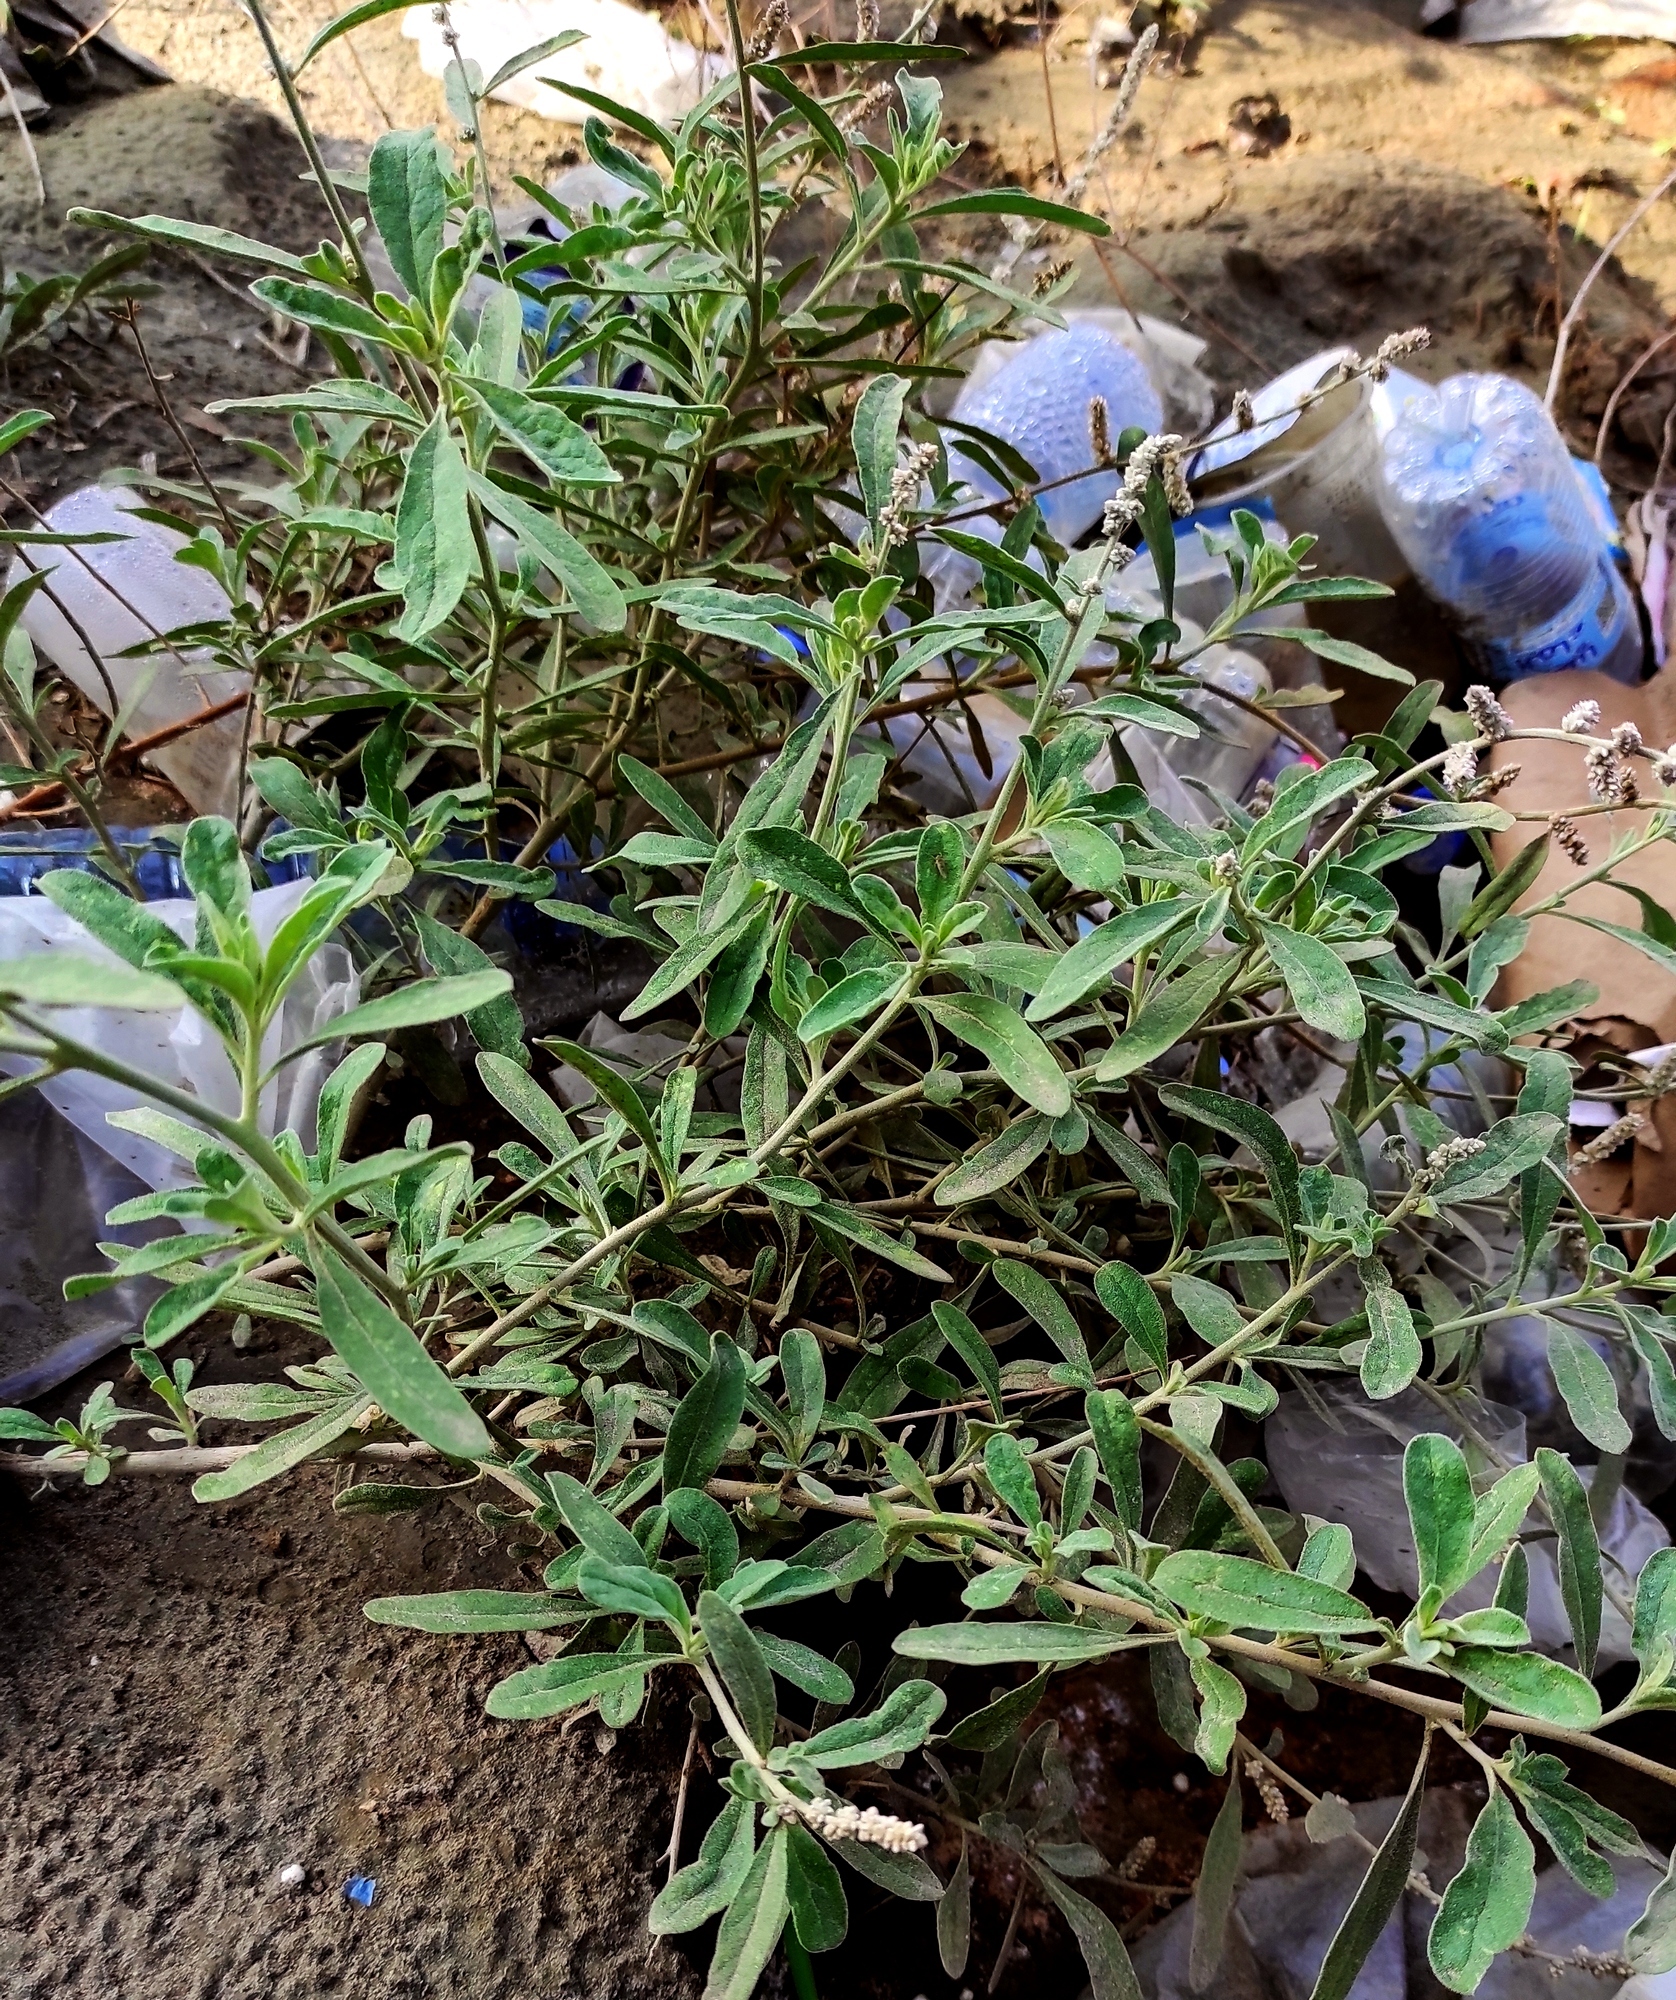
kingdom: Plantae
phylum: Tracheophyta
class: Magnoliopsida
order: Caryophyllales
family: Amaranthaceae
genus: Aerva
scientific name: Aerva javanica
